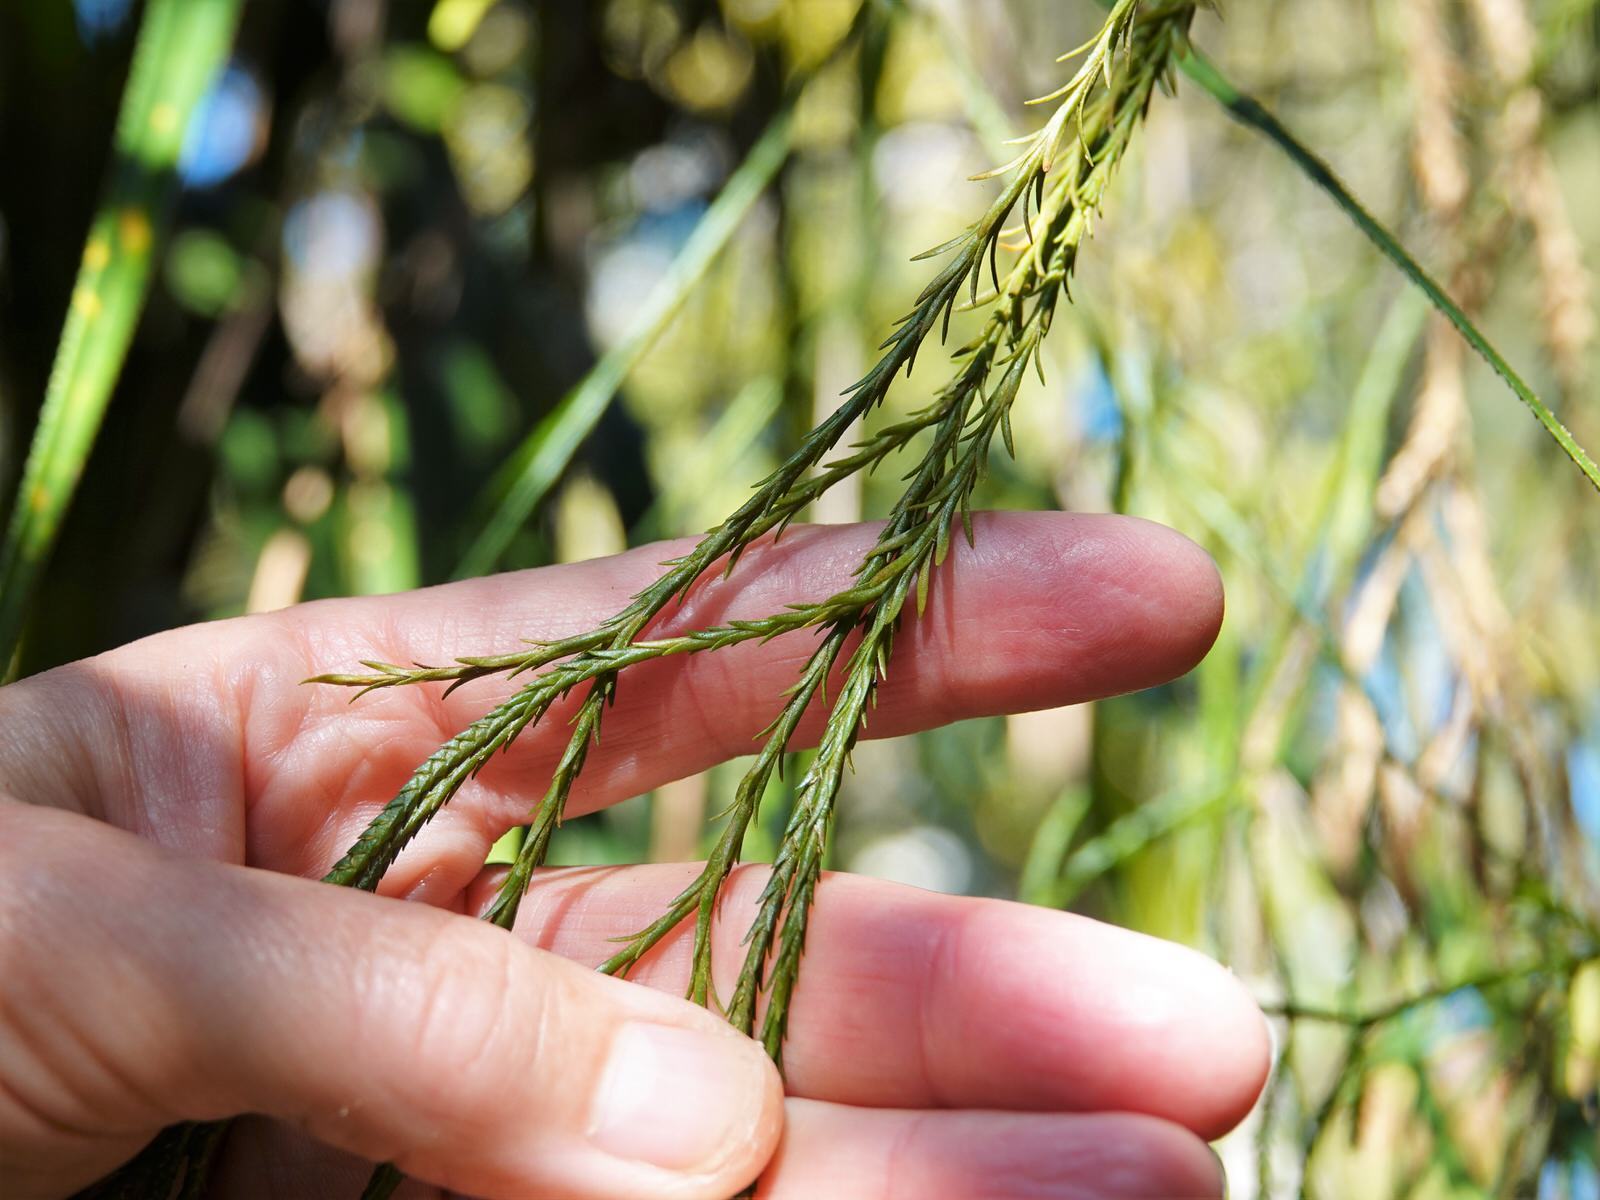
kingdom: Plantae
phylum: Tracheophyta
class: Lycopodiopsida
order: Lycopodiales
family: Lycopodiaceae
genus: Phlegmariurus
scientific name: Phlegmariurus billardierei
